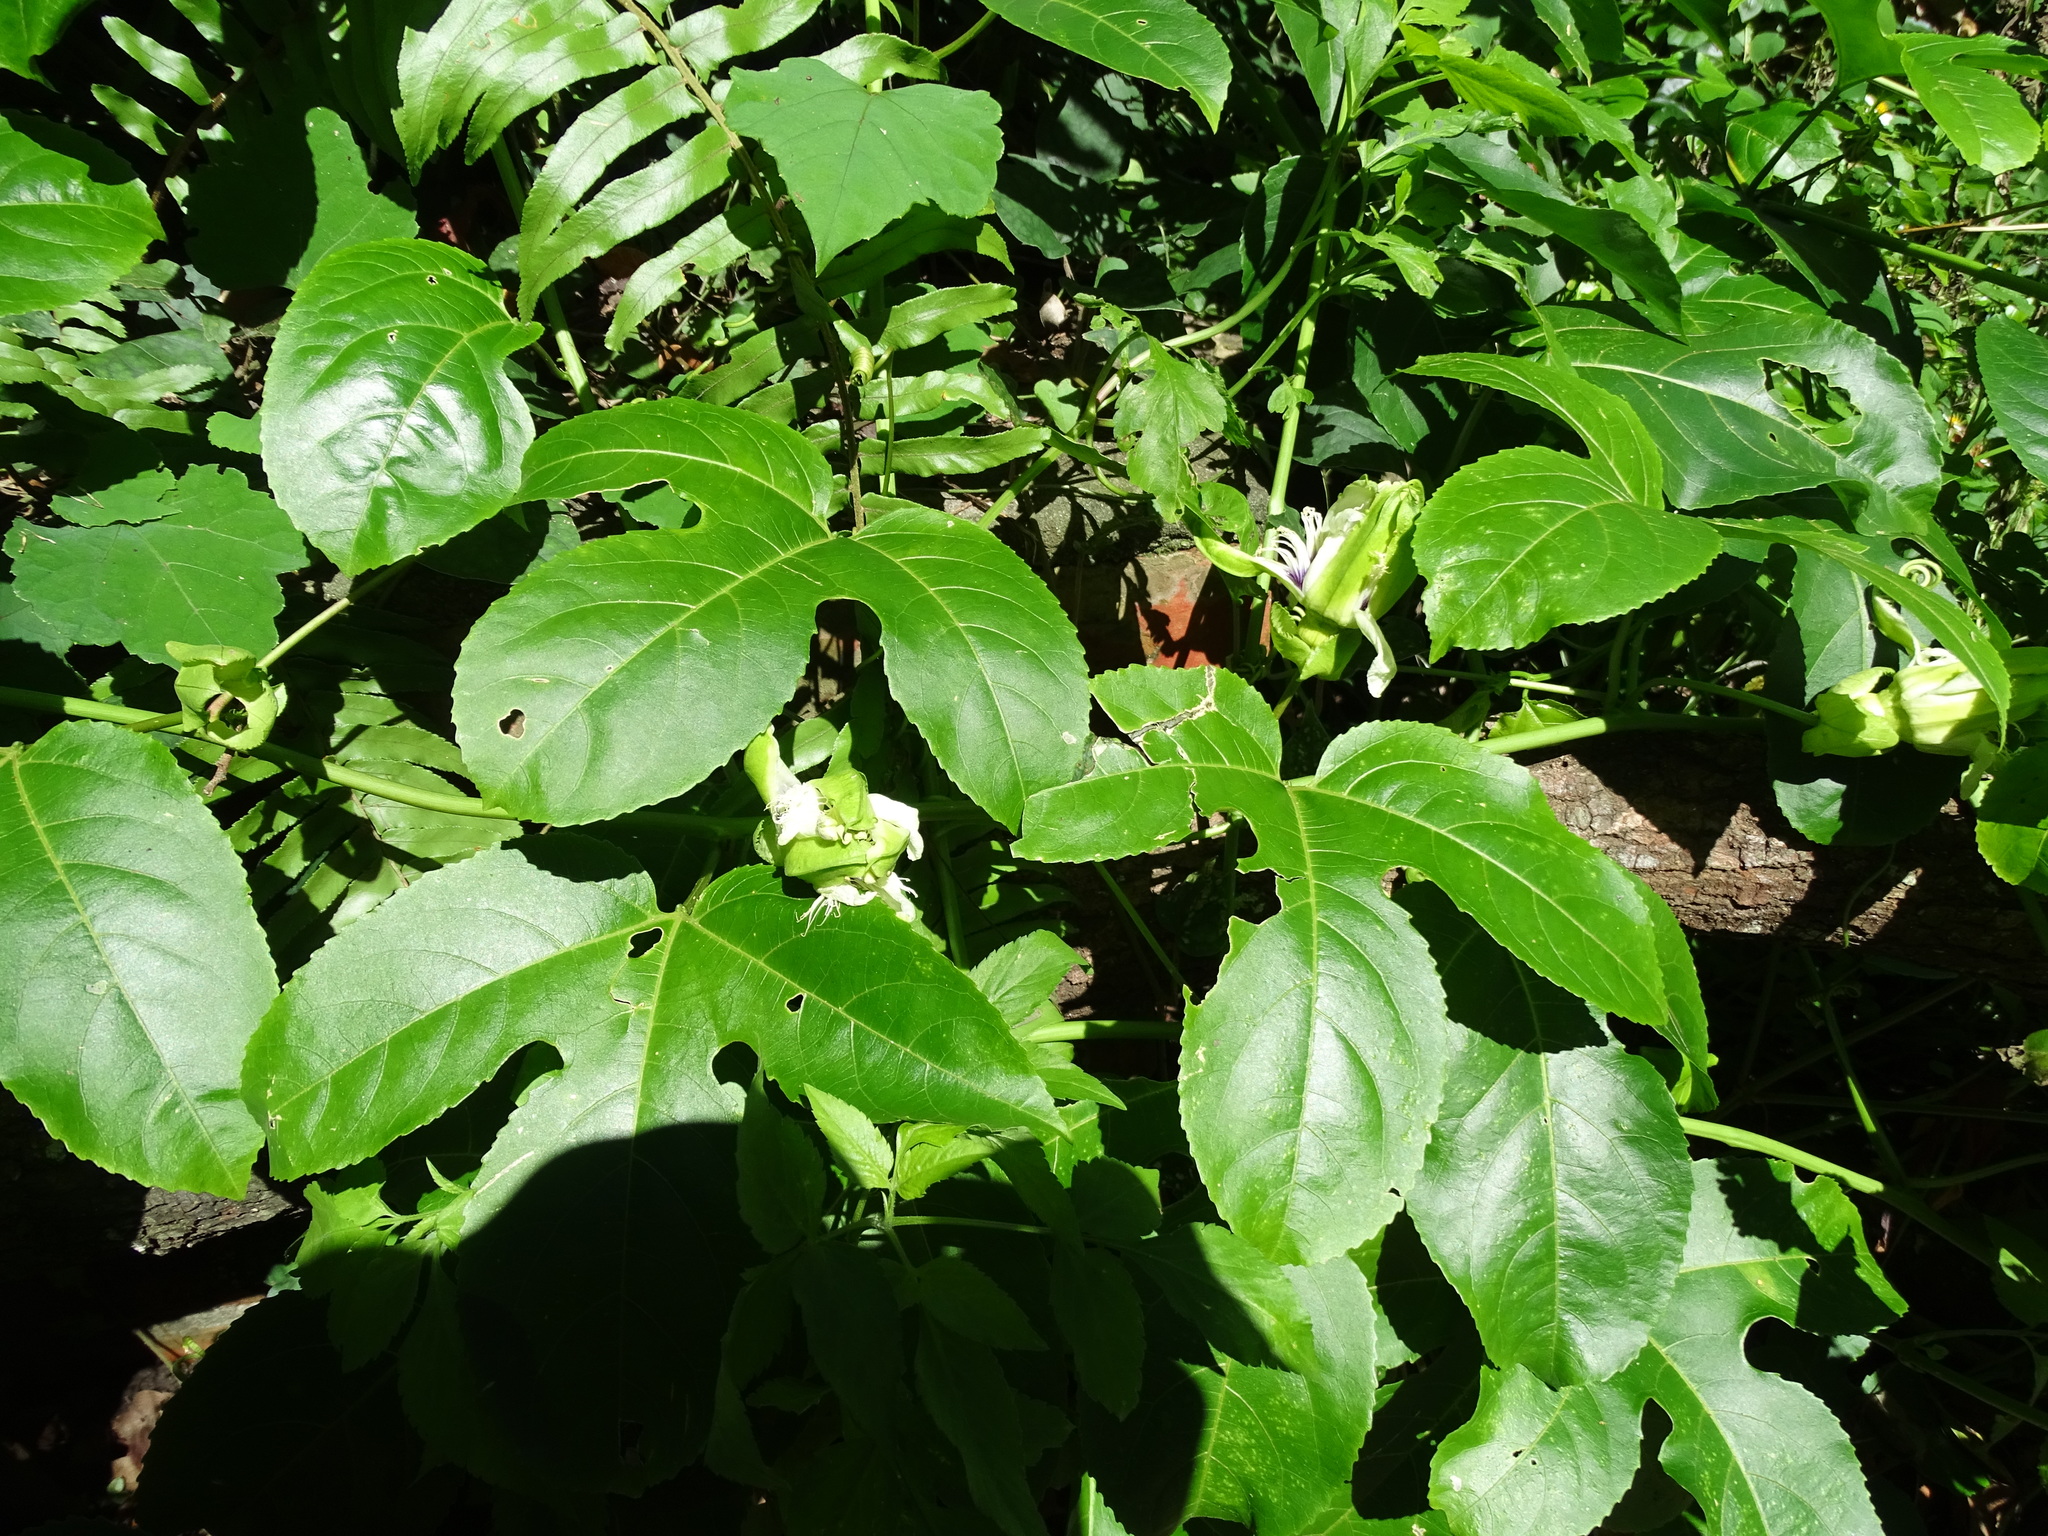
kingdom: Plantae
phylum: Tracheophyta
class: Magnoliopsida
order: Malpighiales
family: Passifloraceae
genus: Passiflora
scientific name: Passiflora edulis
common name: Purple granadilla
